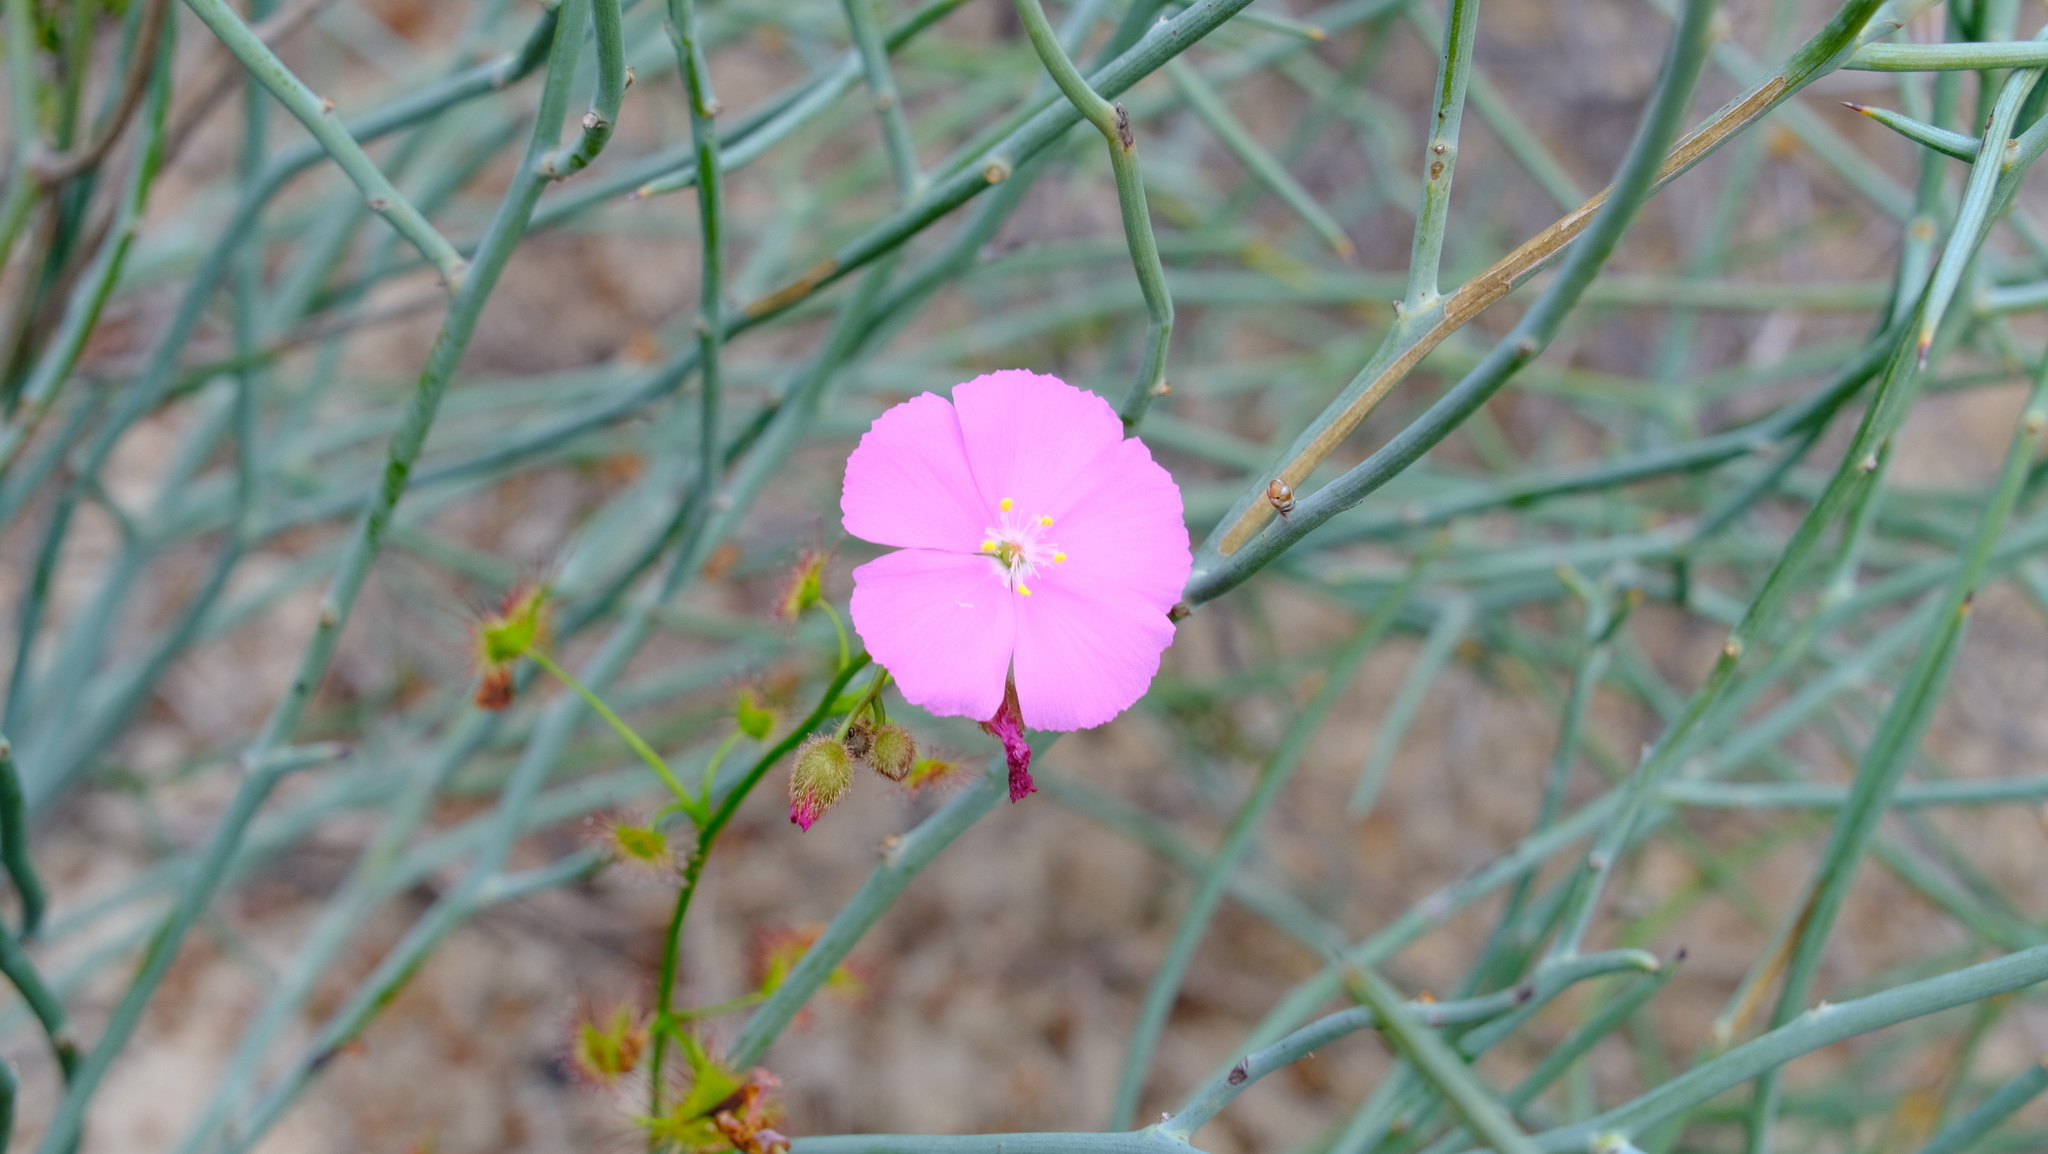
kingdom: Plantae
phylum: Tracheophyta
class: Magnoliopsida
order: Caryophyllales
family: Droseraceae
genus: Drosera
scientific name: Drosera neesii
